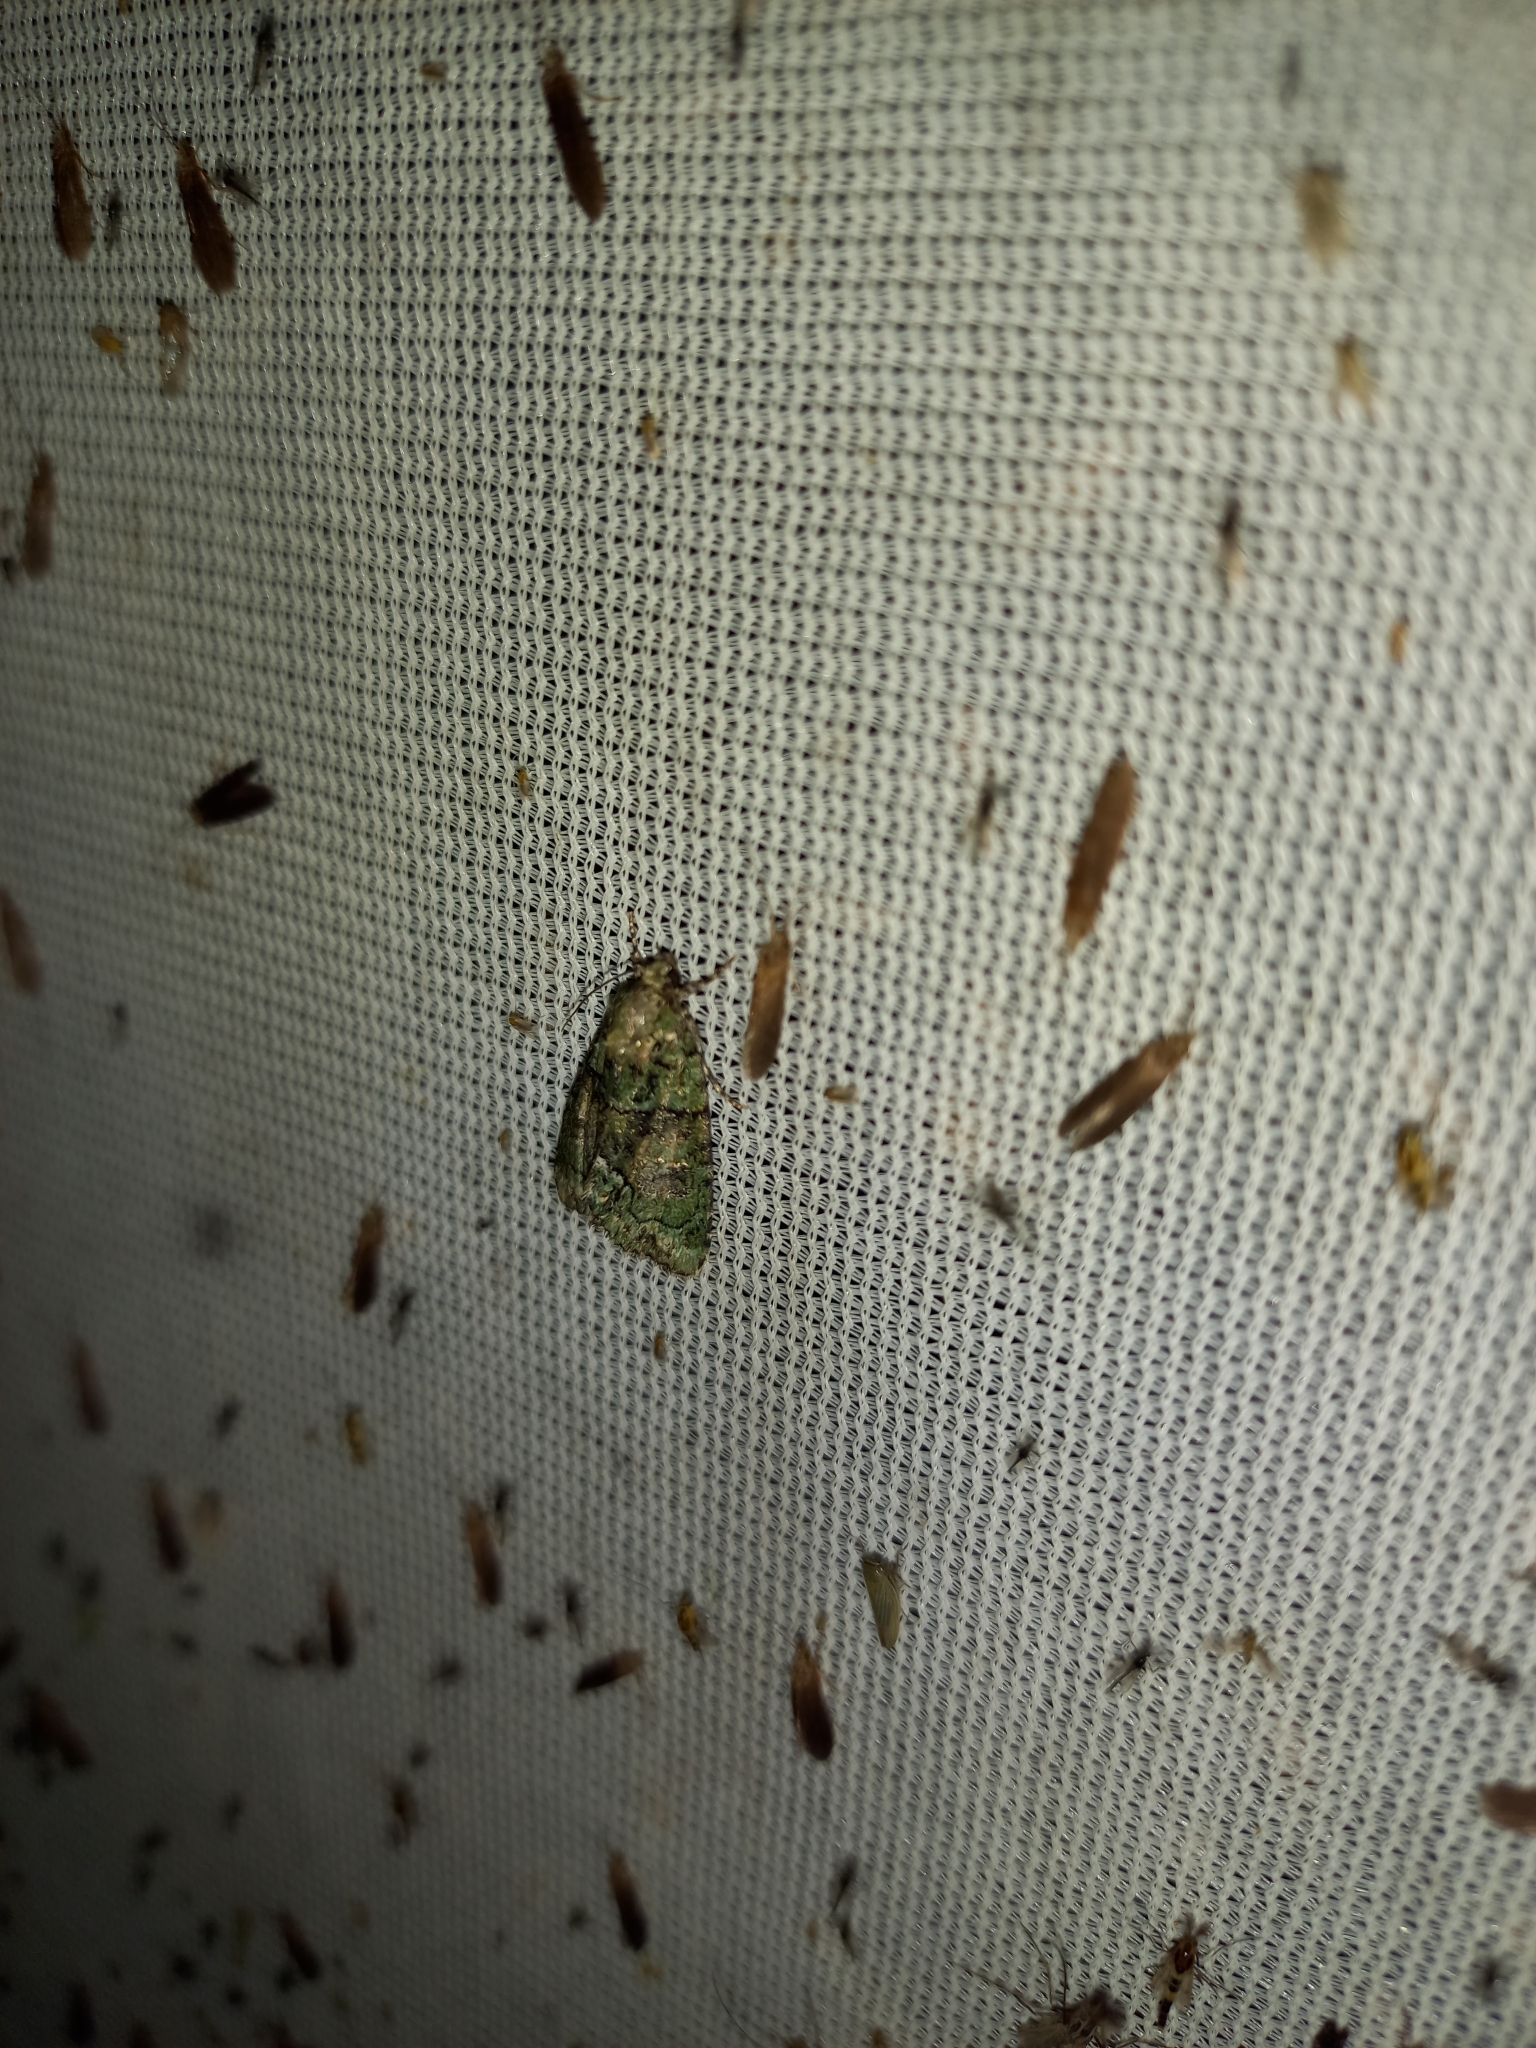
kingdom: Animalia
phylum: Arthropoda
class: Insecta
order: Lepidoptera
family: Noctuidae
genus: Cryphia
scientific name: Cryphia algae
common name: Tree-lichen beauty
